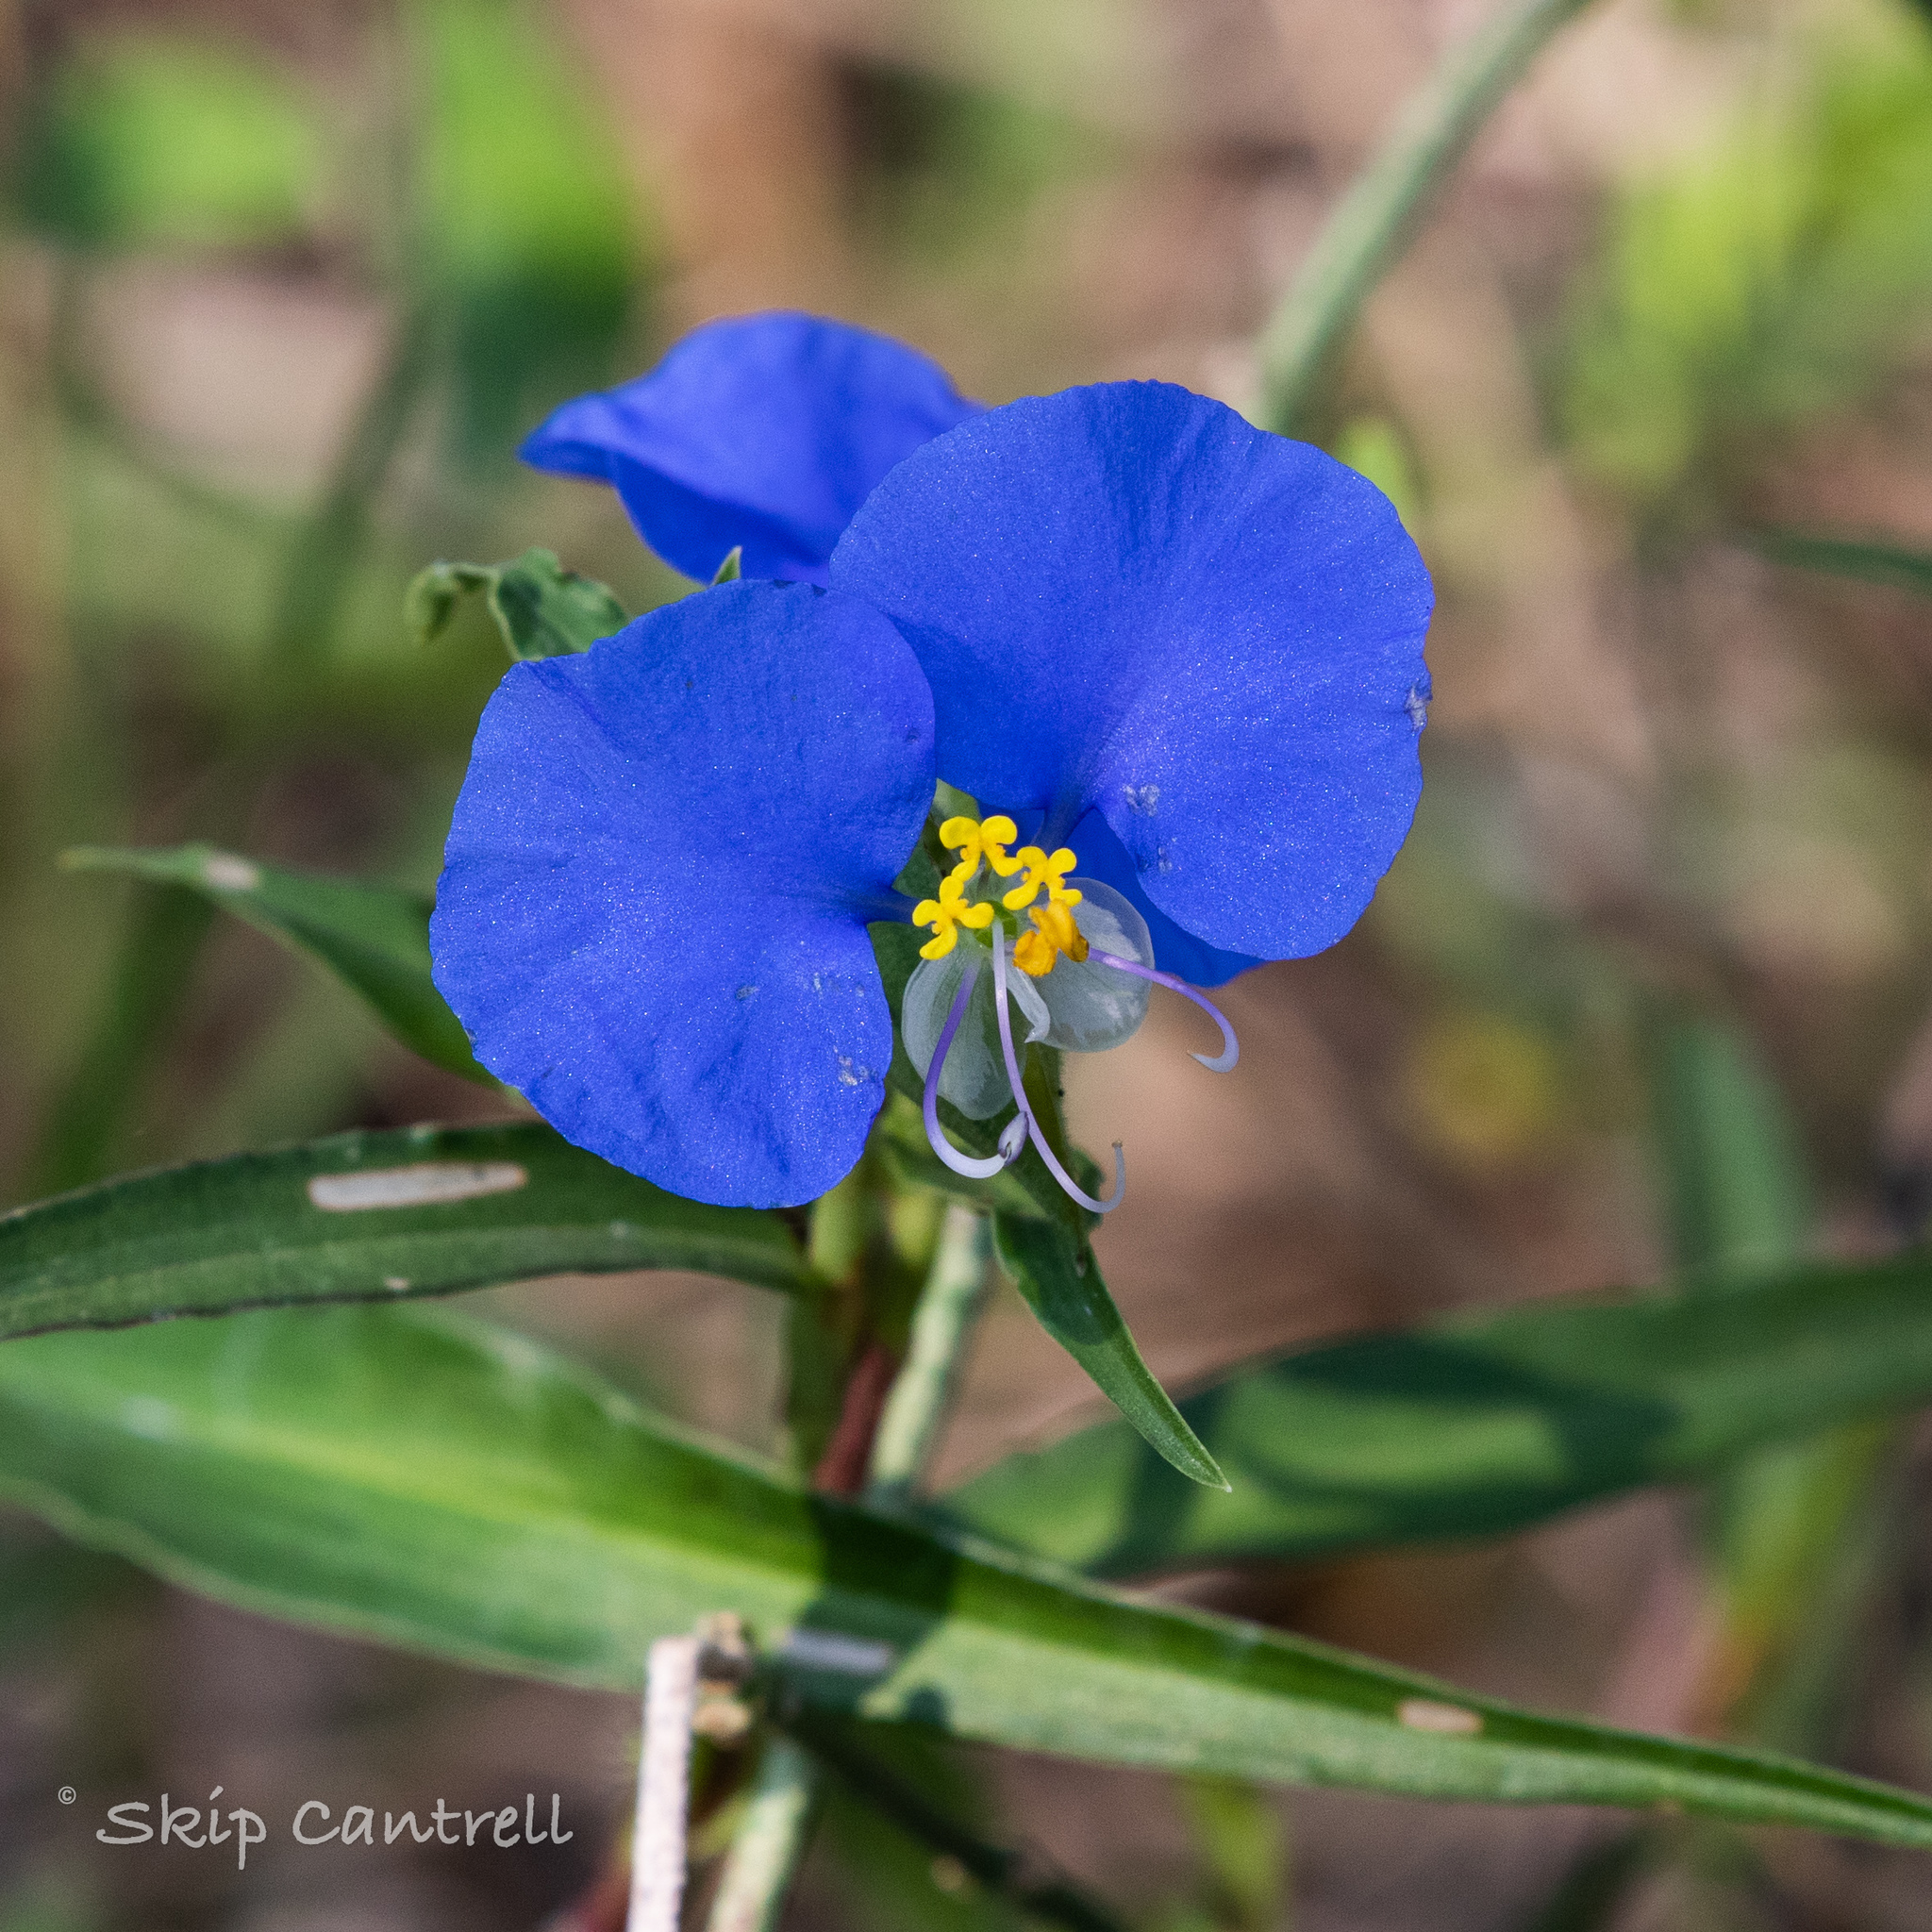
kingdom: Plantae
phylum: Tracheophyta
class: Liliopsida
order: Commelinales
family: Commelinaceae
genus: Commelina
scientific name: Commelina erecta
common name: Blousel blommetjie
